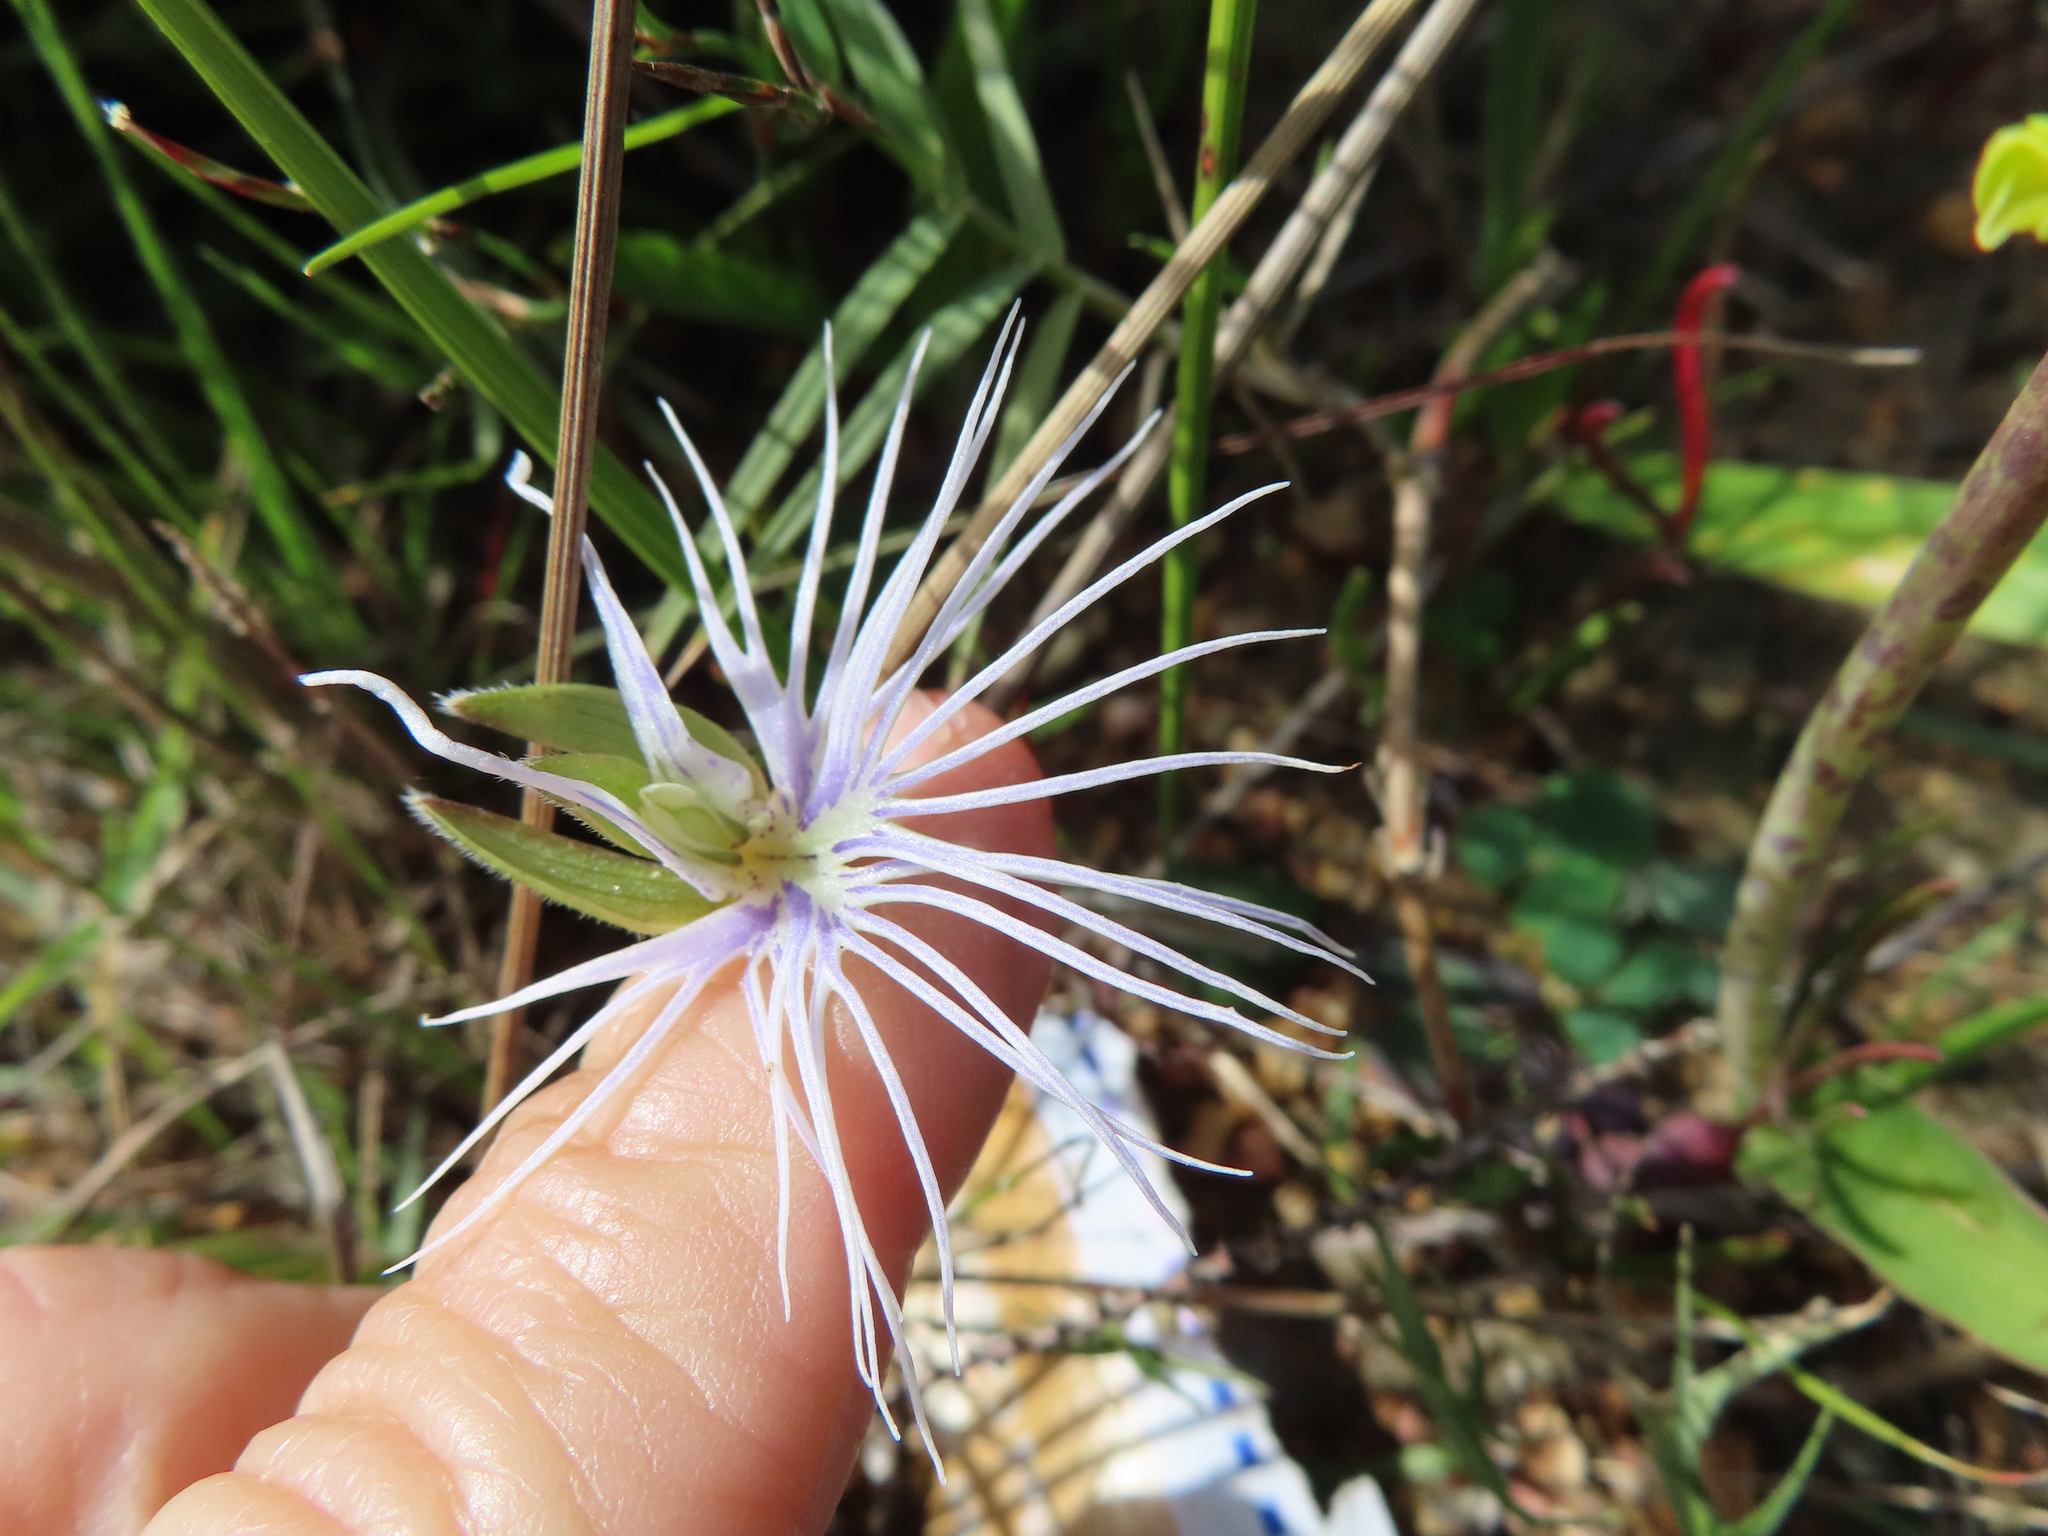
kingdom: Plantae
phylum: Tracheophyta
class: Liliopsida
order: Asparagales
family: Orchidaceae
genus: Holothrix
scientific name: Holothrix burmanniana
